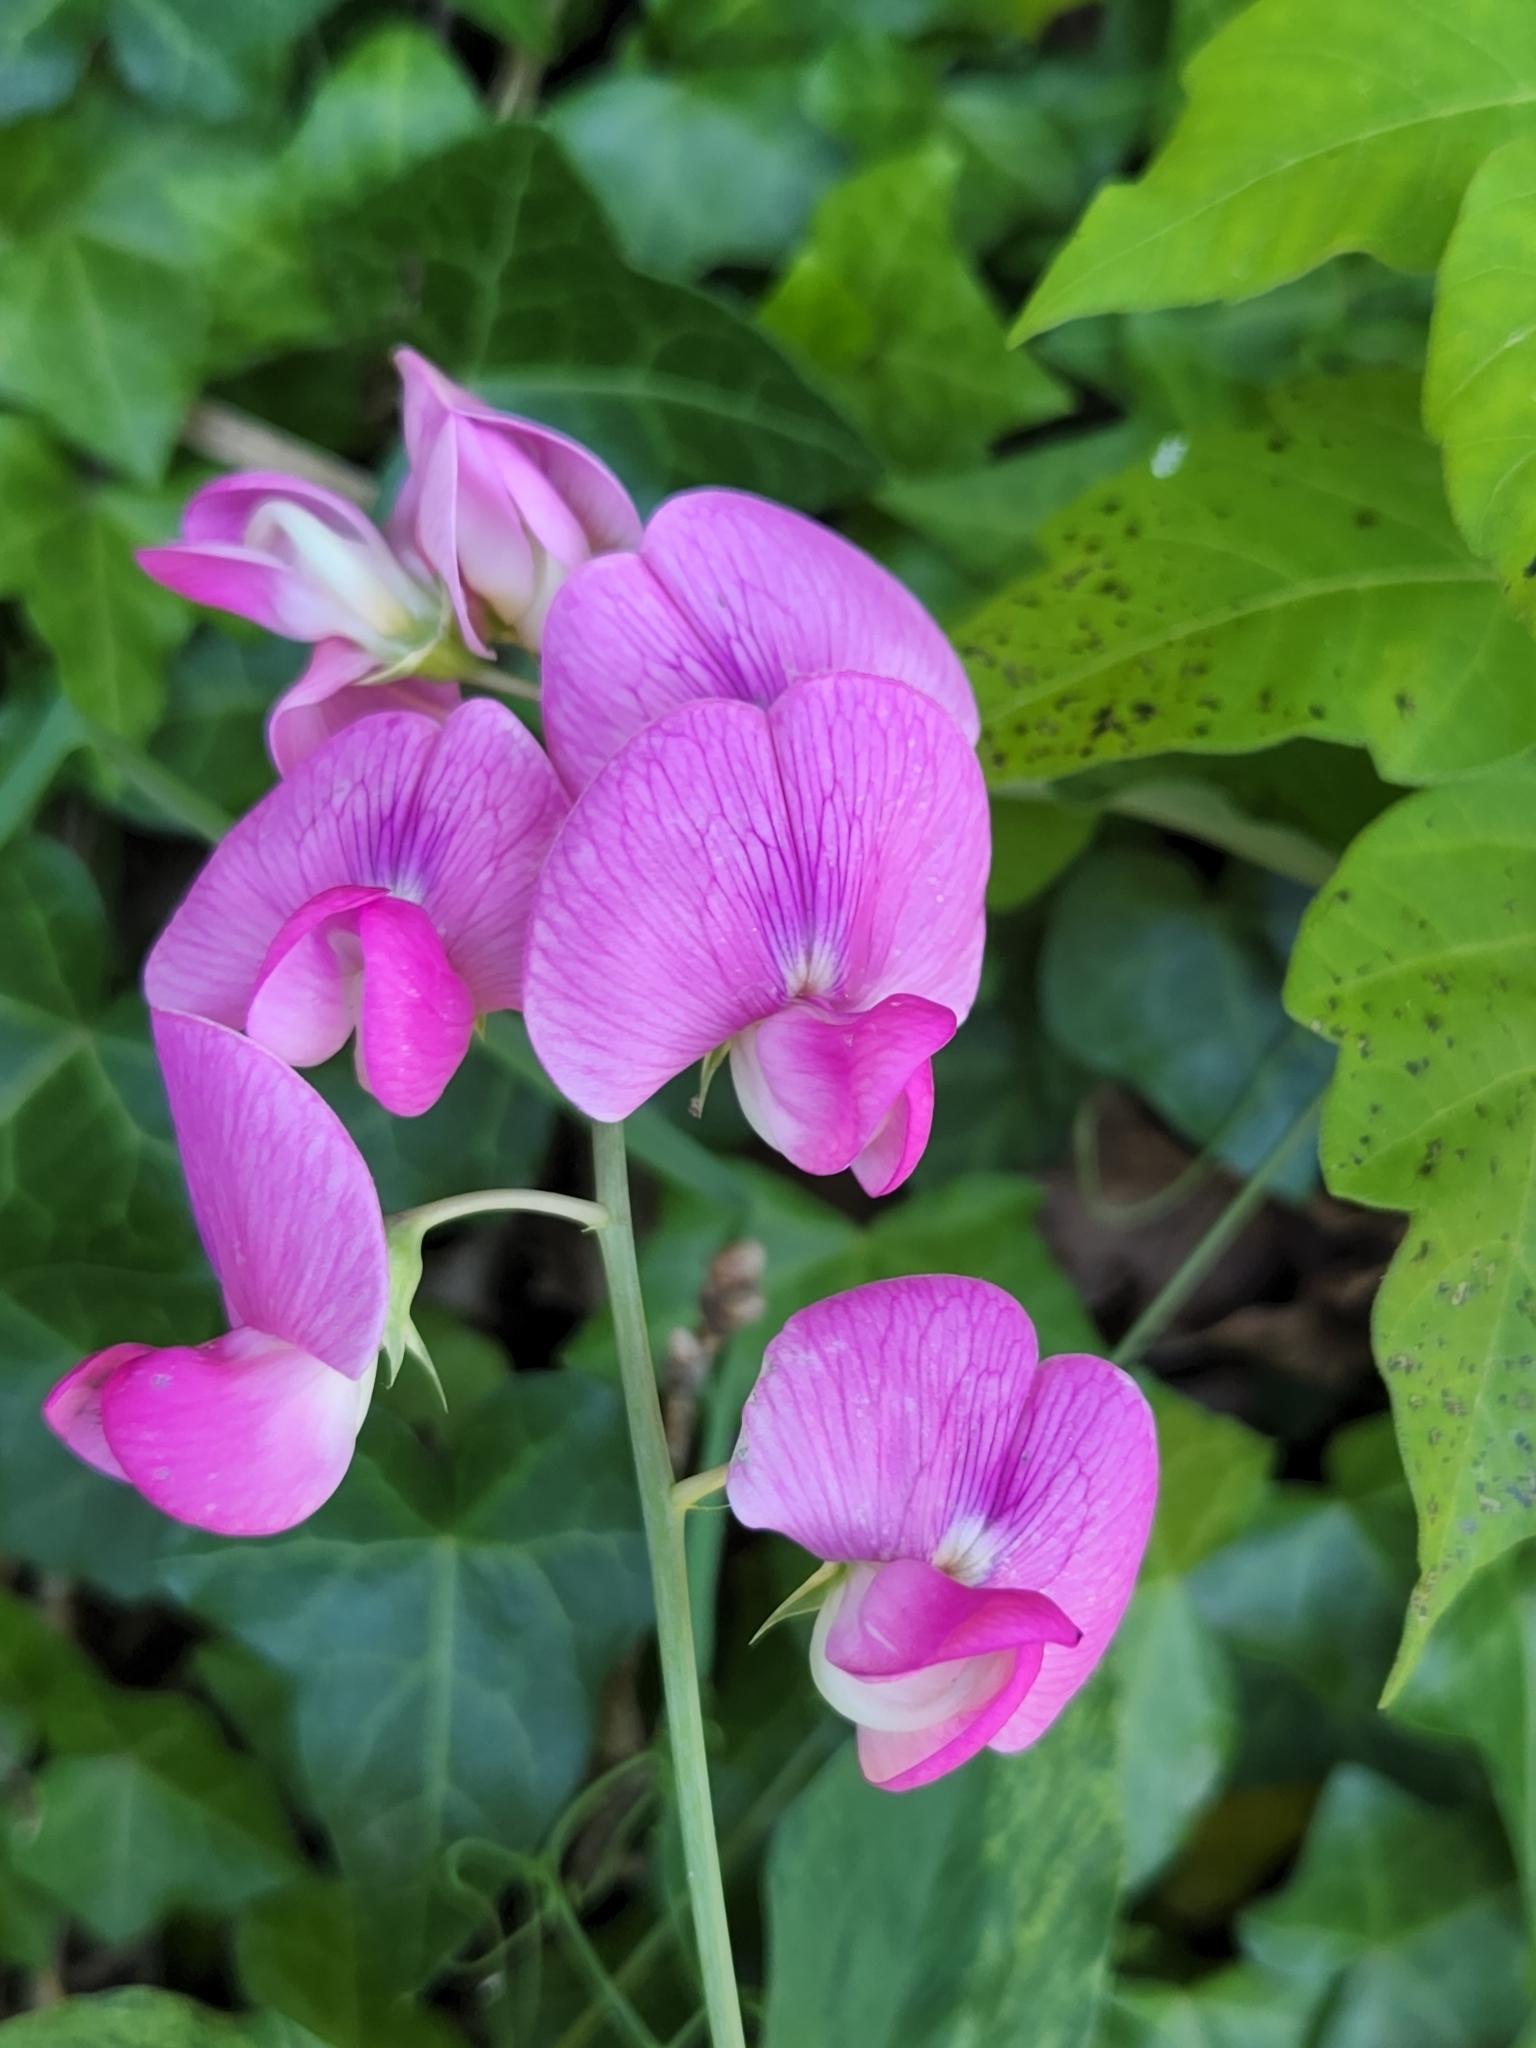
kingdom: Plantae
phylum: Tracheophyta
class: Magnoliopsida
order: Fabales
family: Fabaceae
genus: Lathyrus
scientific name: Lathyrus latifolius
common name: Perennial pea
